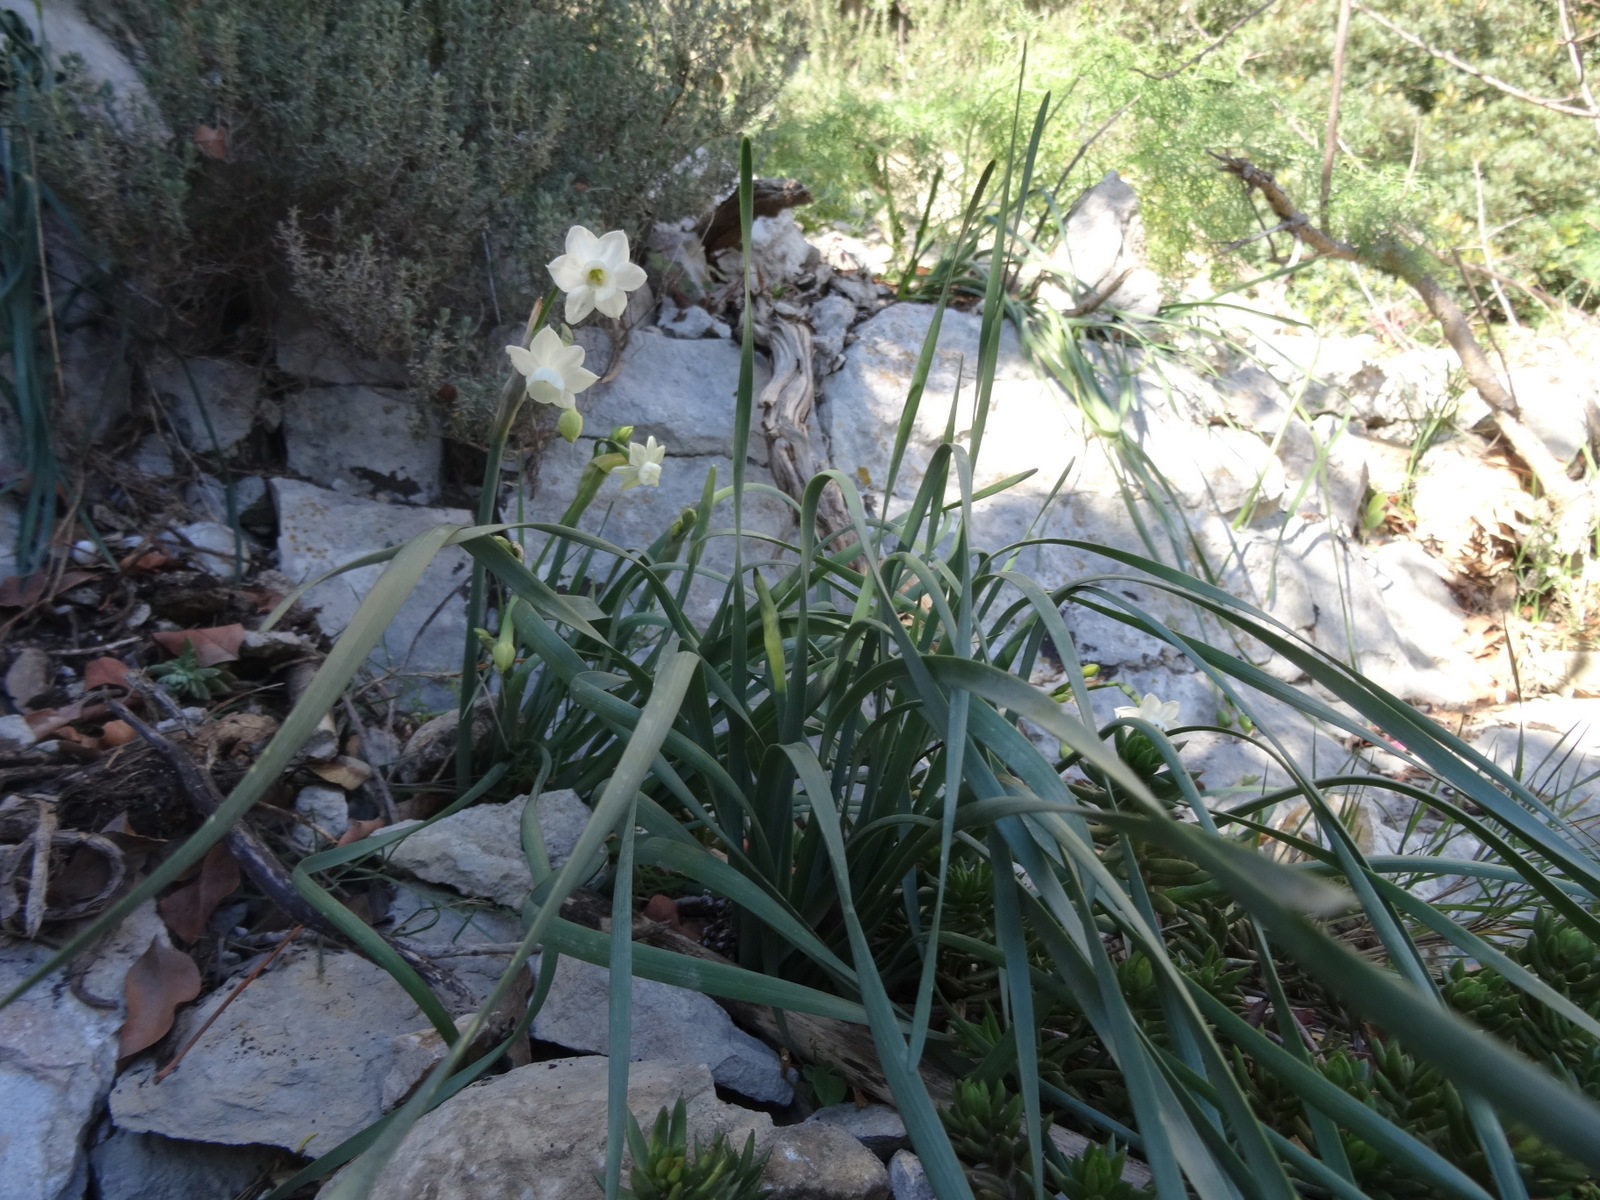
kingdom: Plantae
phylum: Tracheophyta
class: Liliopsida
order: Asparagales
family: Amaryllidaceae
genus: Narcissus
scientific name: Narcissus dubius
